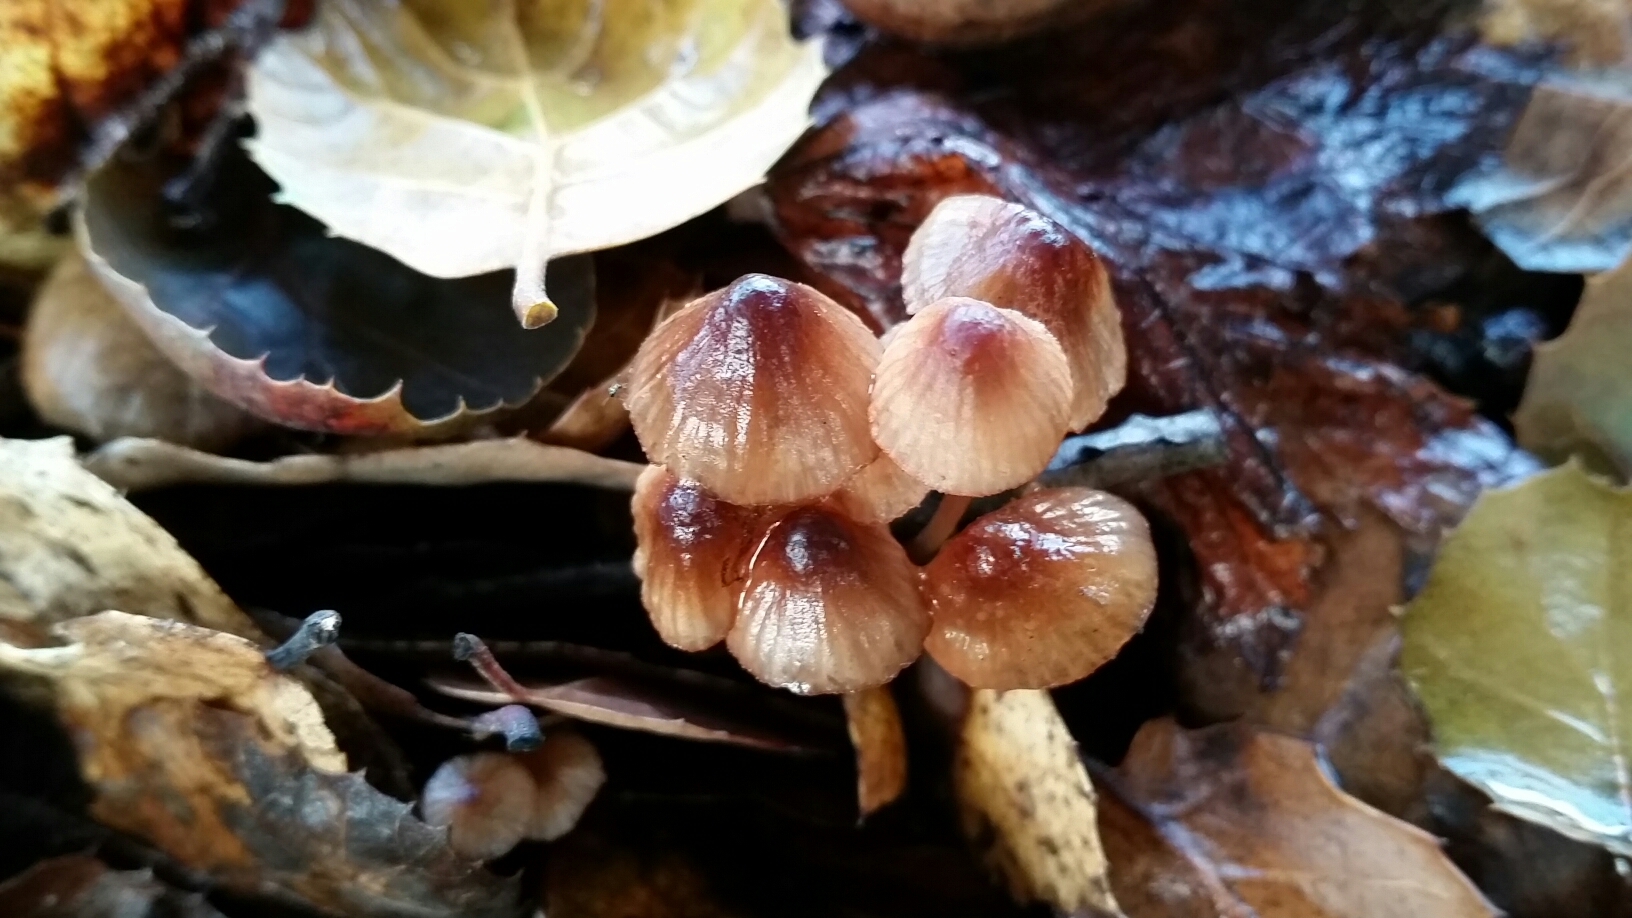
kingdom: Fungi
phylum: Basidiomycota
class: Agaricomycetes
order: Agaricales
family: Mycenaceae
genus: Mycena
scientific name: Mycena
